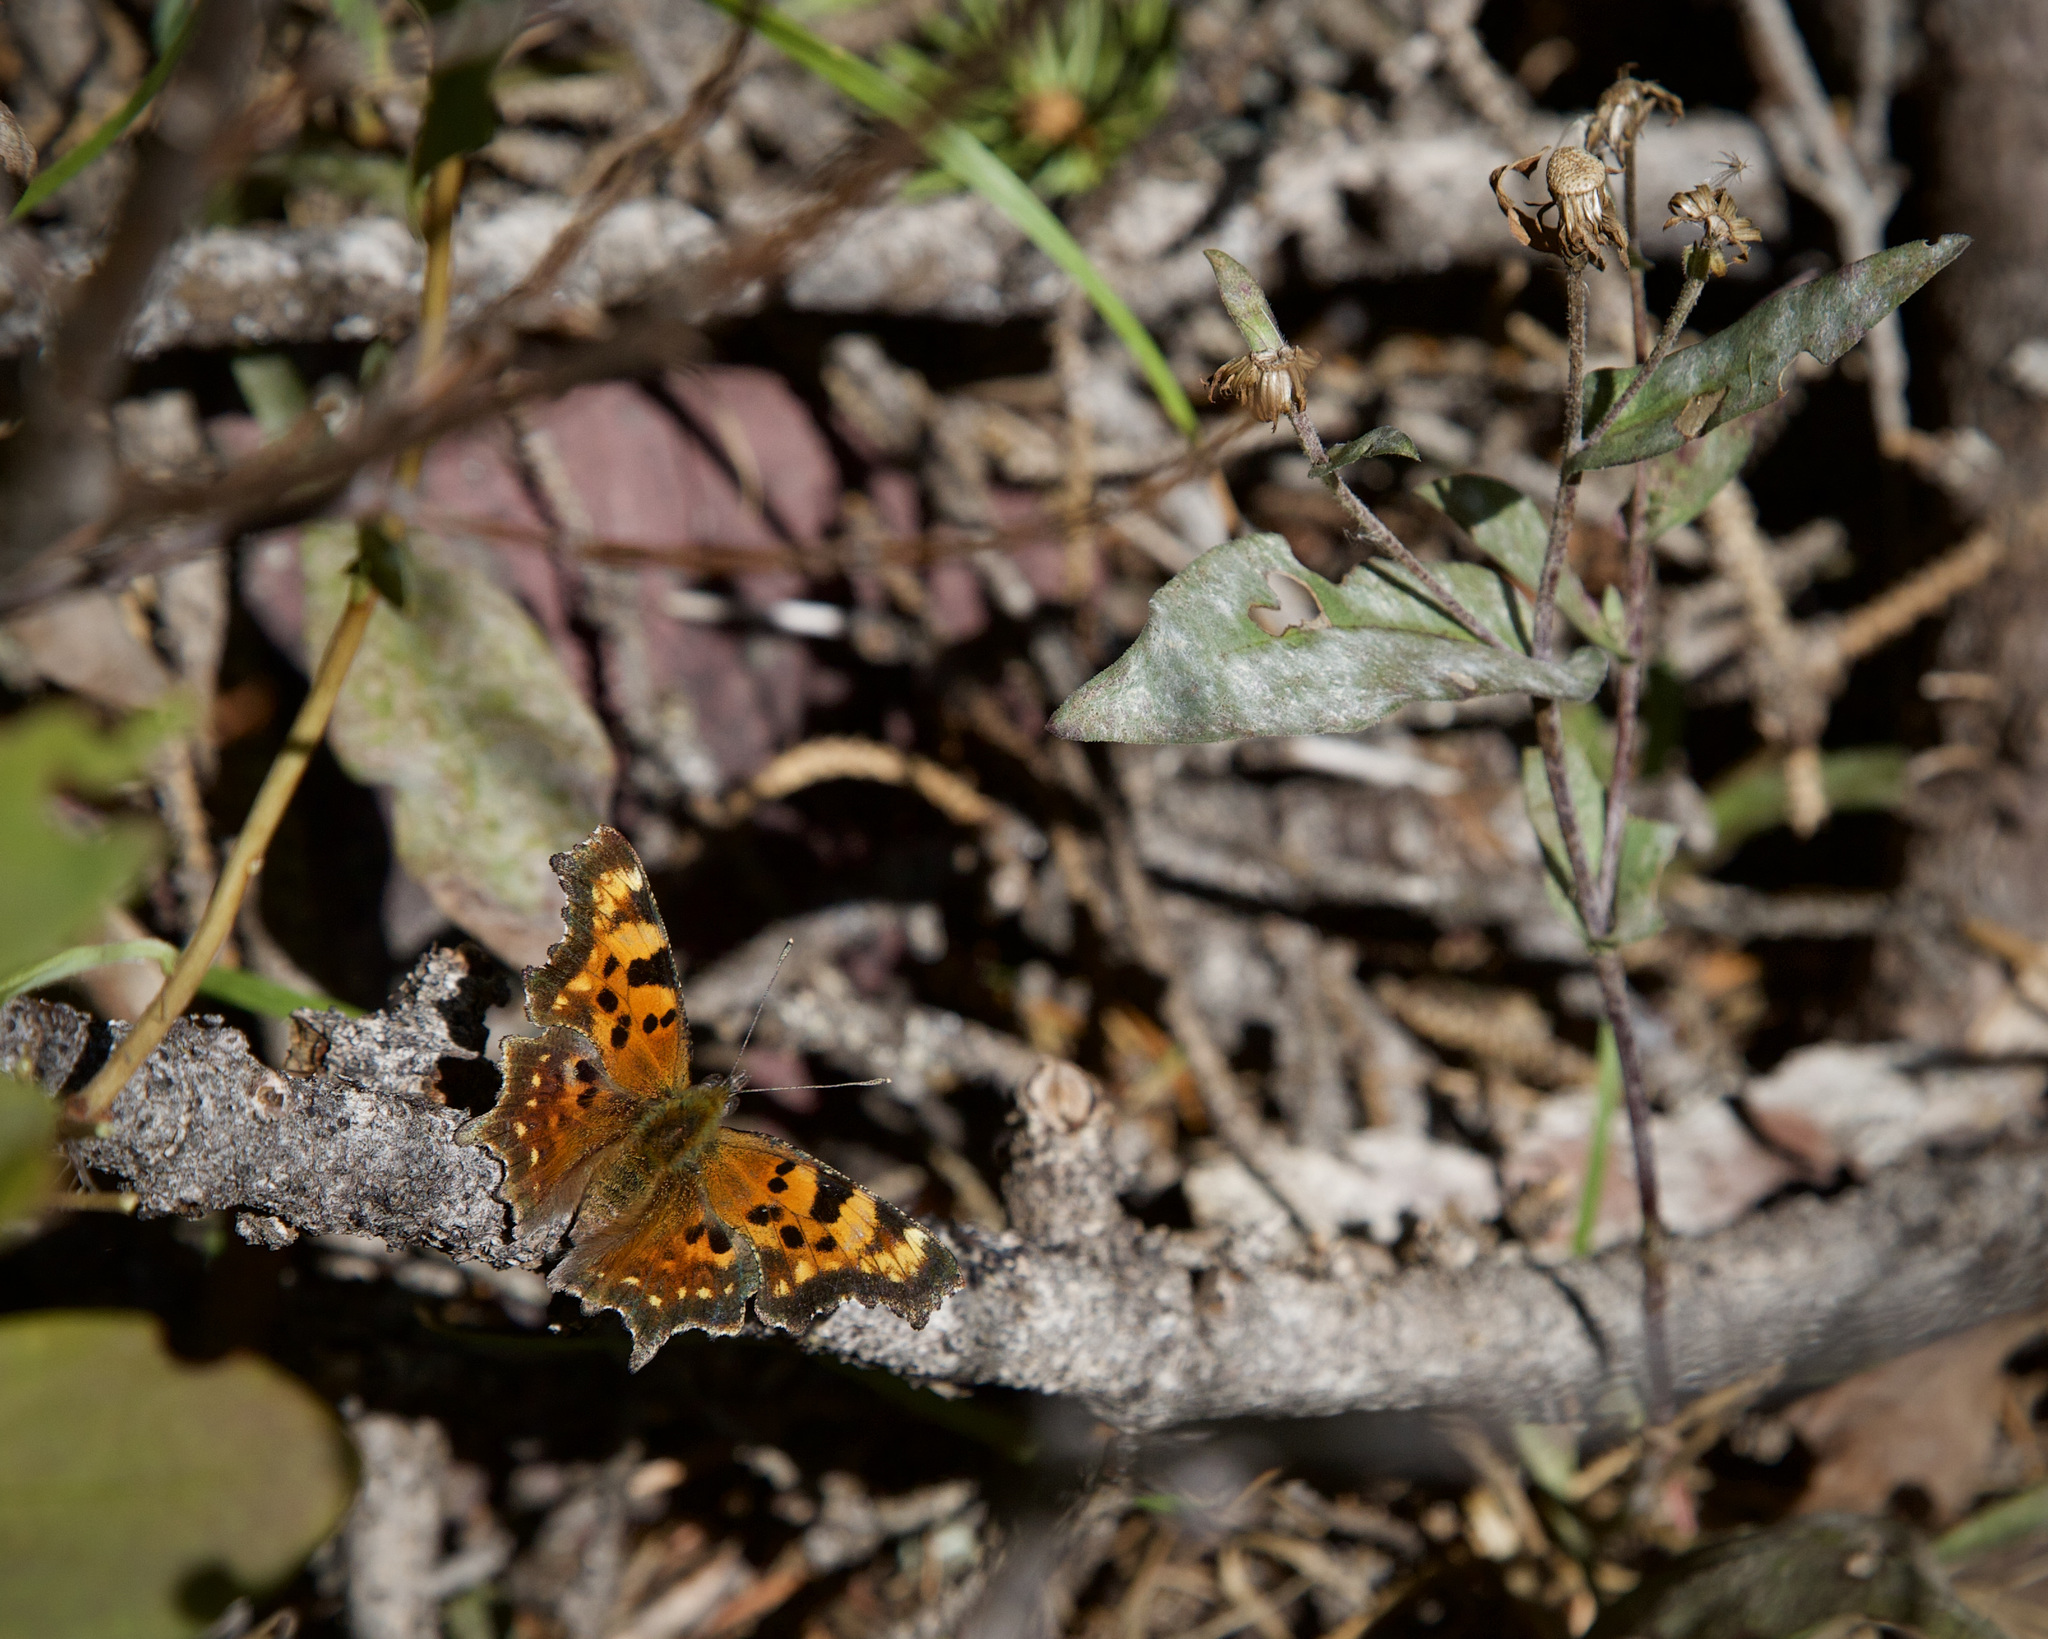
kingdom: Animalia
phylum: Arthropoda
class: Insecta
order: Lepidoptera
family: Nymphalidae
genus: Polygonia
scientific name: Polygonia faunus
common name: Green comma
